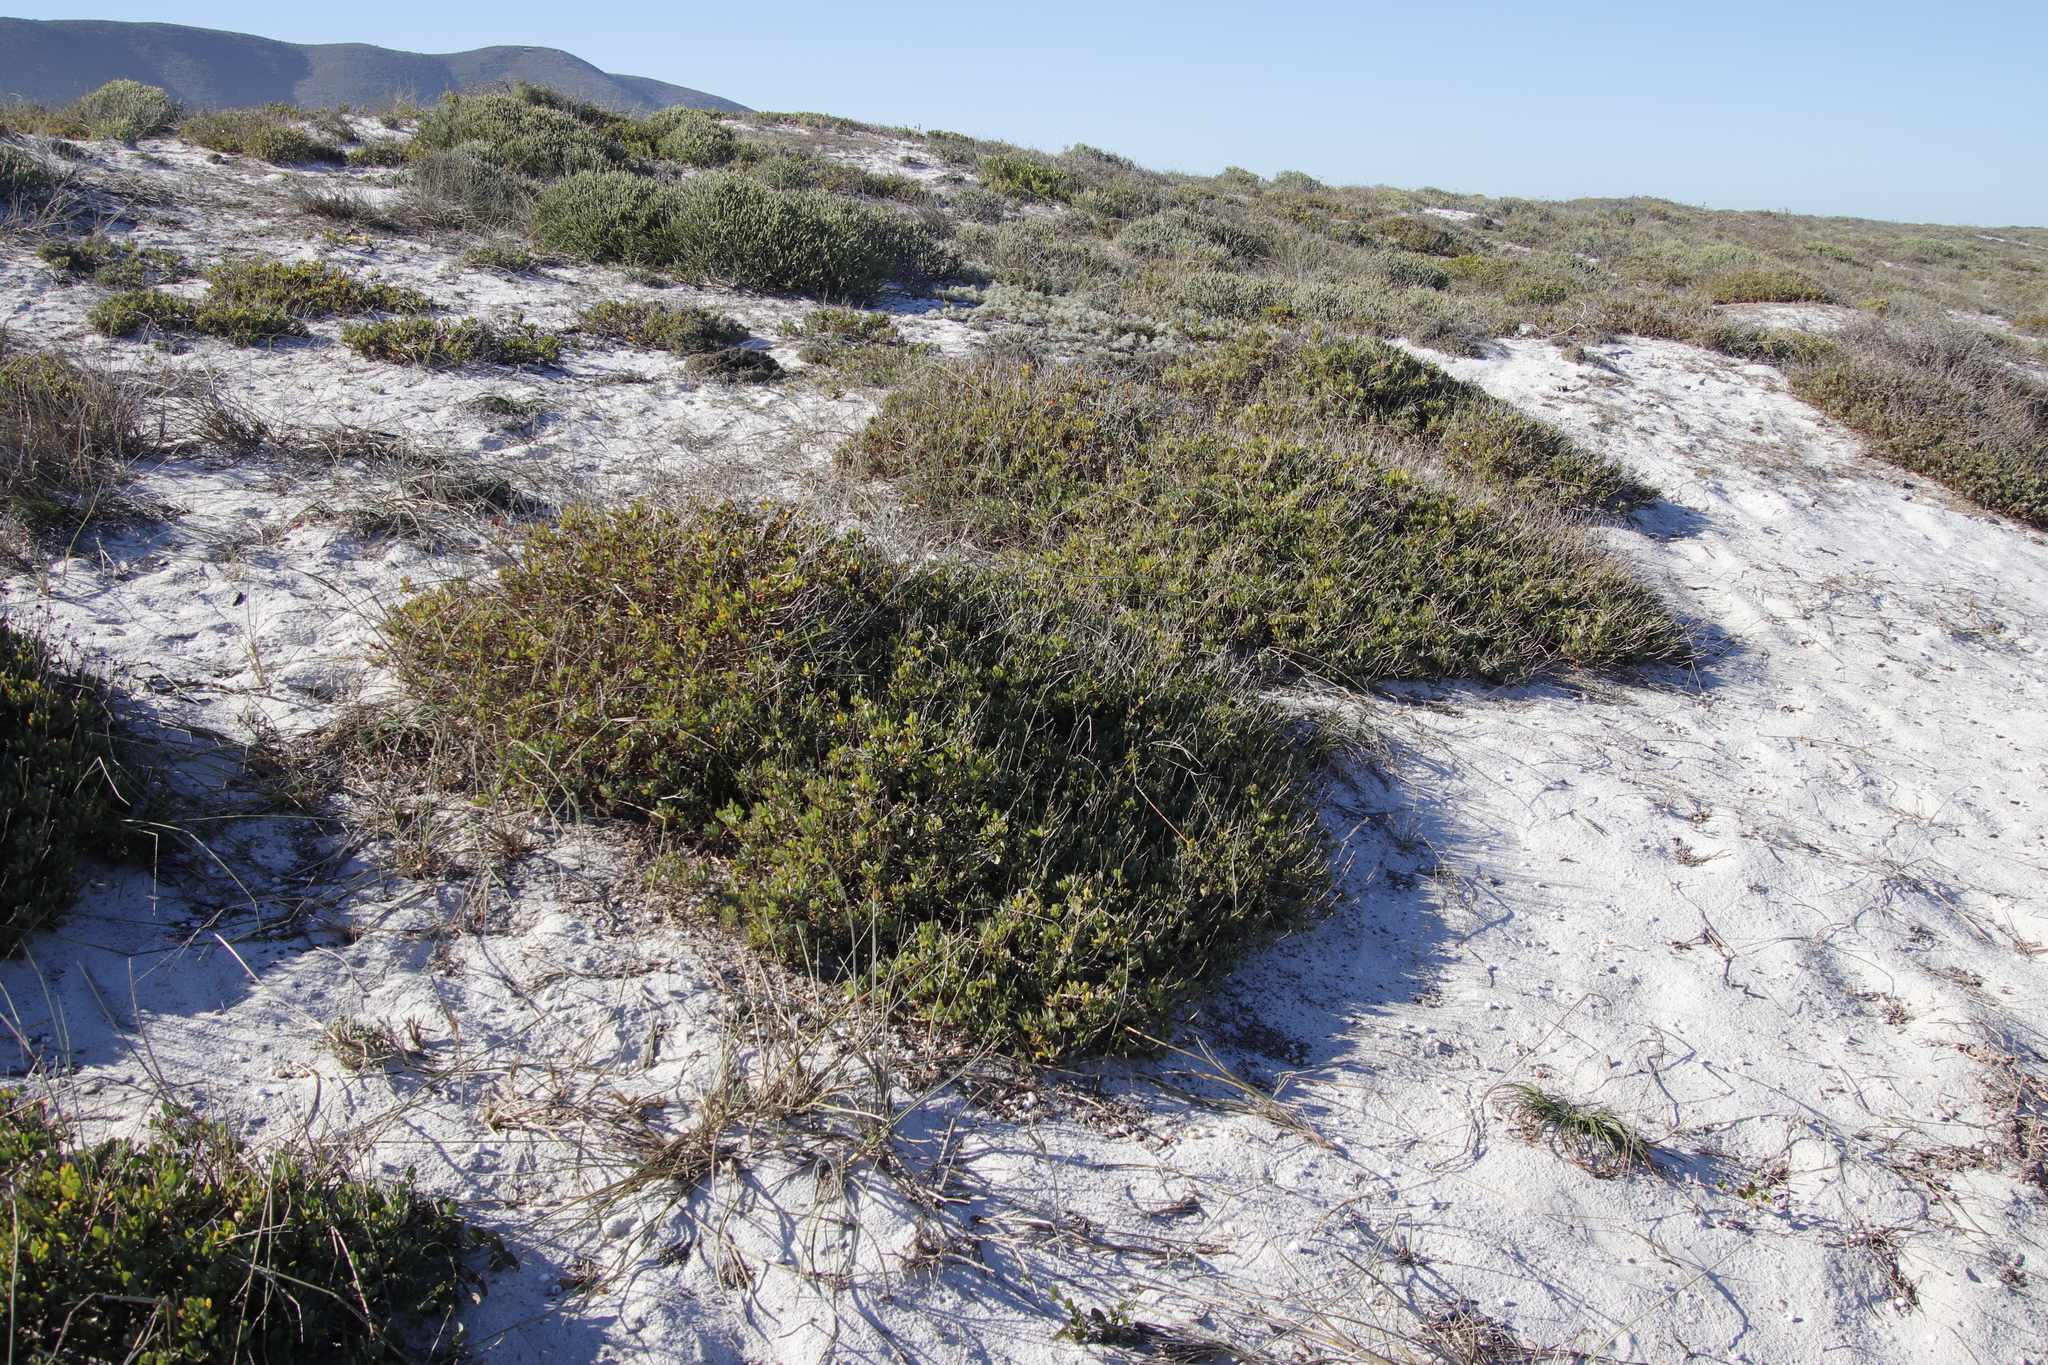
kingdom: Plantae
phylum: Tracheophyta
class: Magnoliopsida
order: Asterales
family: Asteraceae
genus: Othonna
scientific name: Othonna coronopifolia
